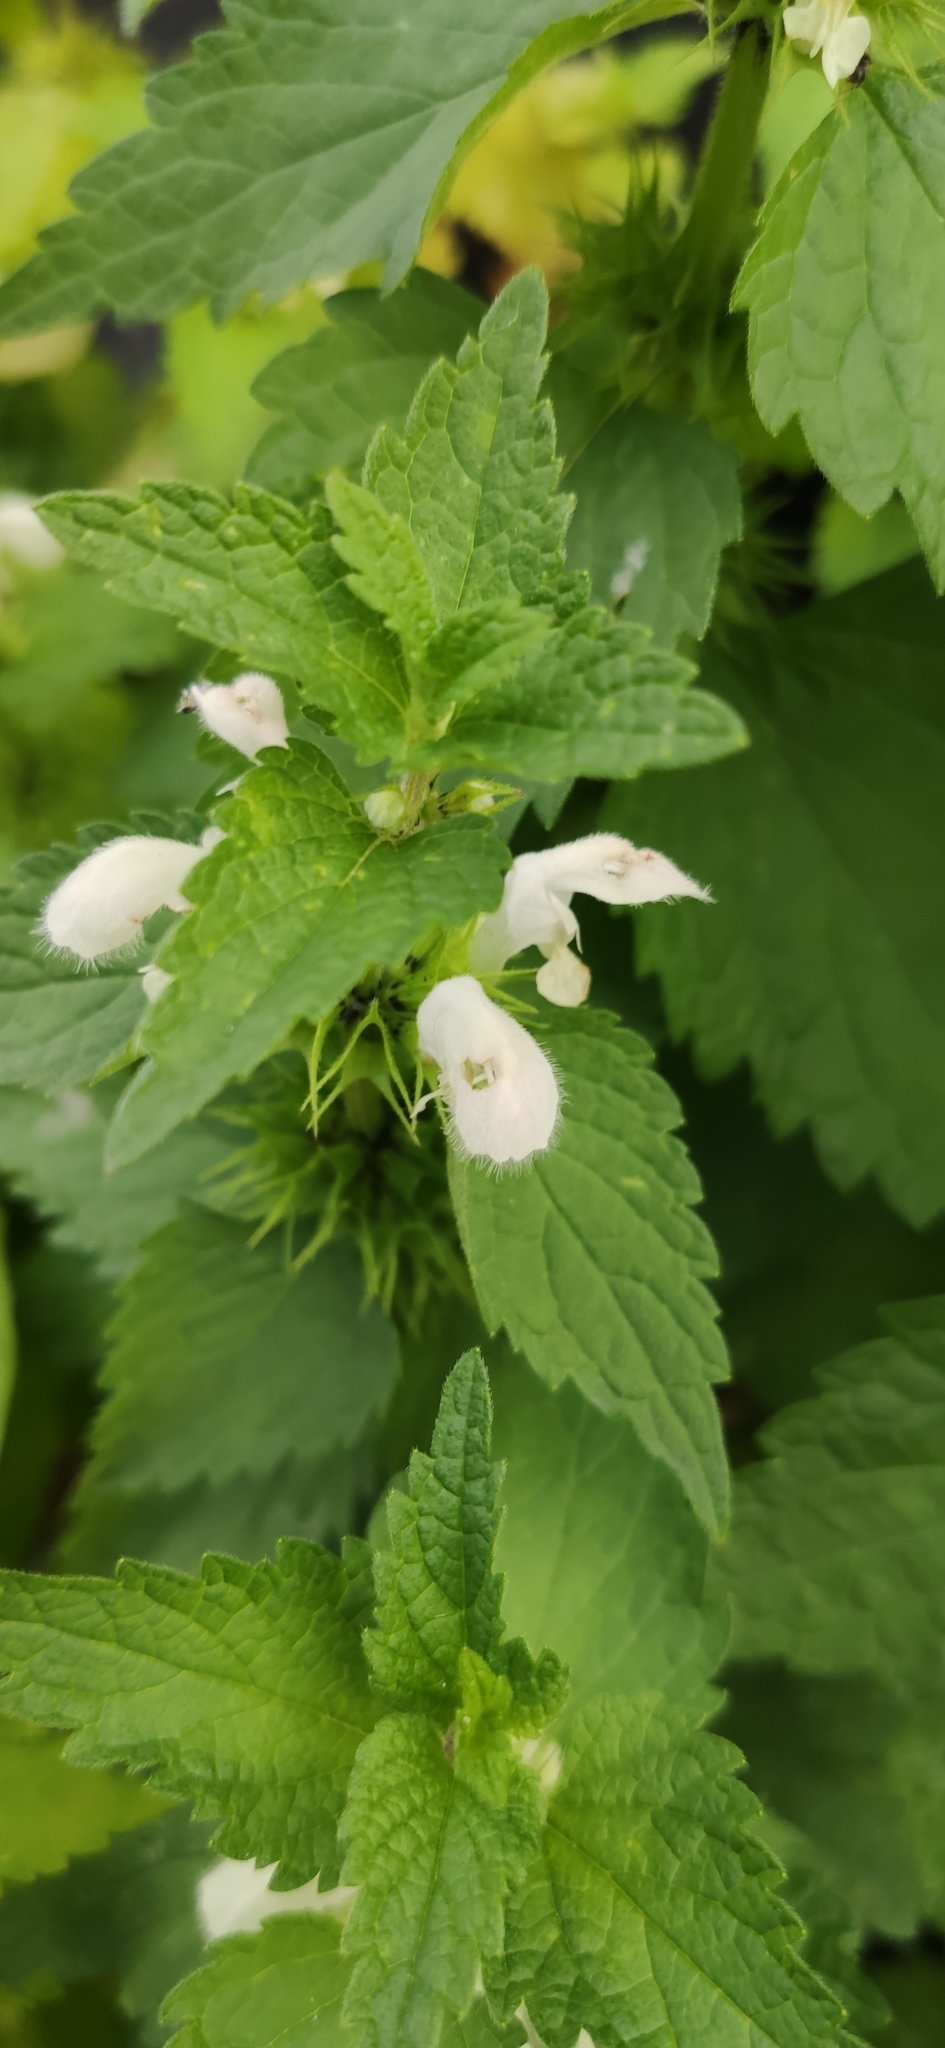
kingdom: Plantae
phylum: Tracheophyta
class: Magnoliopsida
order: Lamiales
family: Lamiaceae
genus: Lamium
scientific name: Lamium album
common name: White dead-nettle
